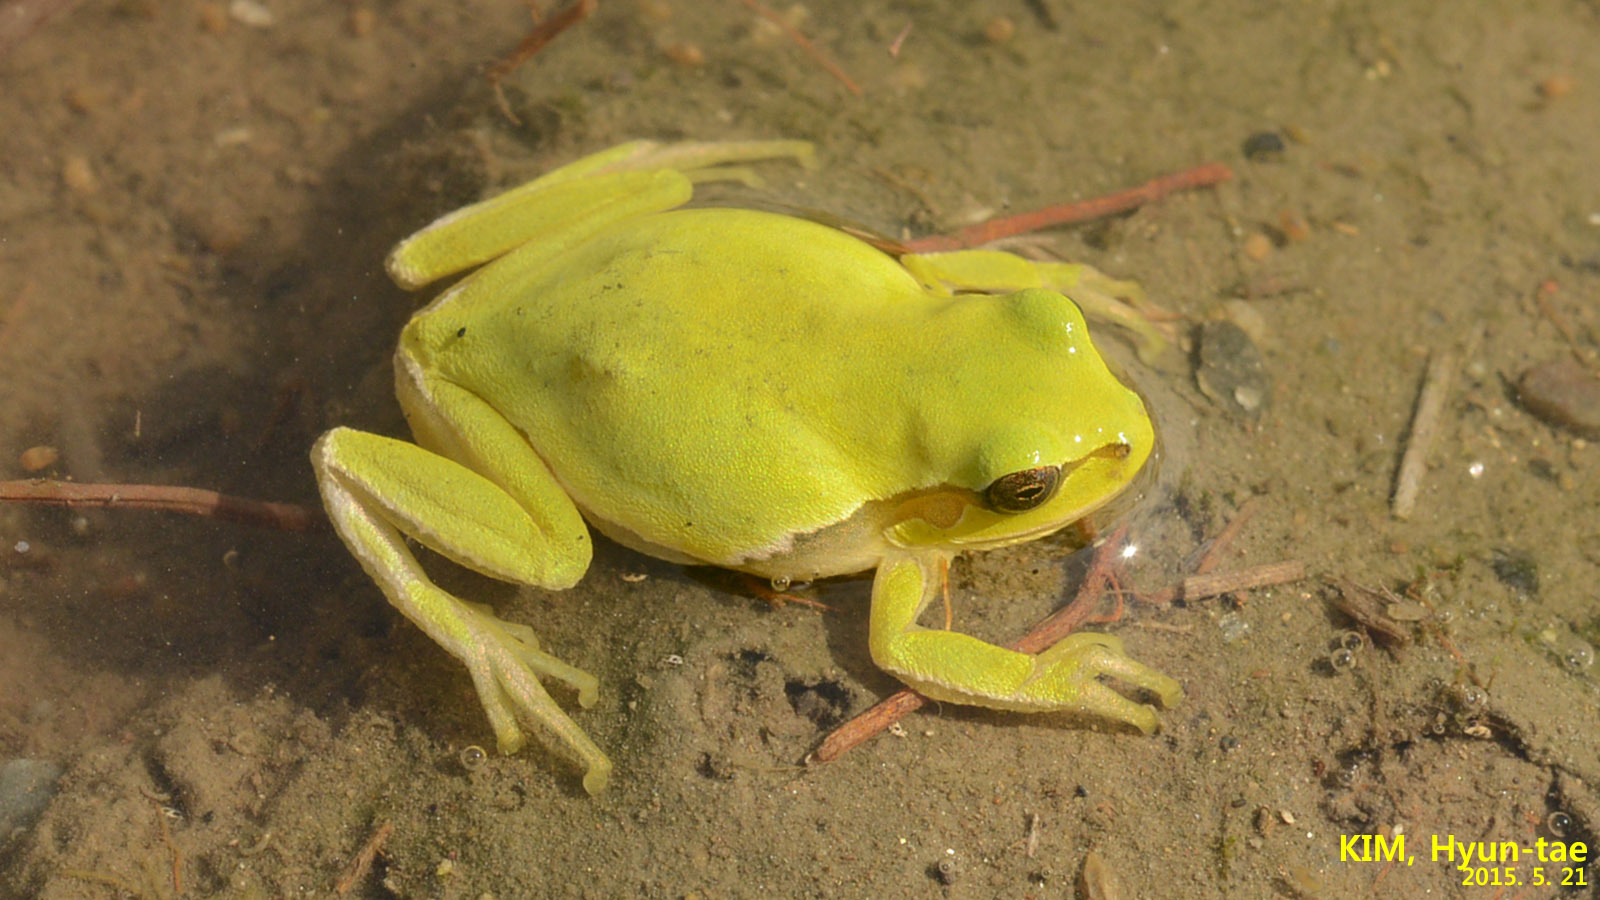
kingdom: Animalia
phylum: Chordata
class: Amphibia
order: Anura
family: Hylidae
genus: Dryophytes
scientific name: Dryophytes immaculatus
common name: North china treefrog
